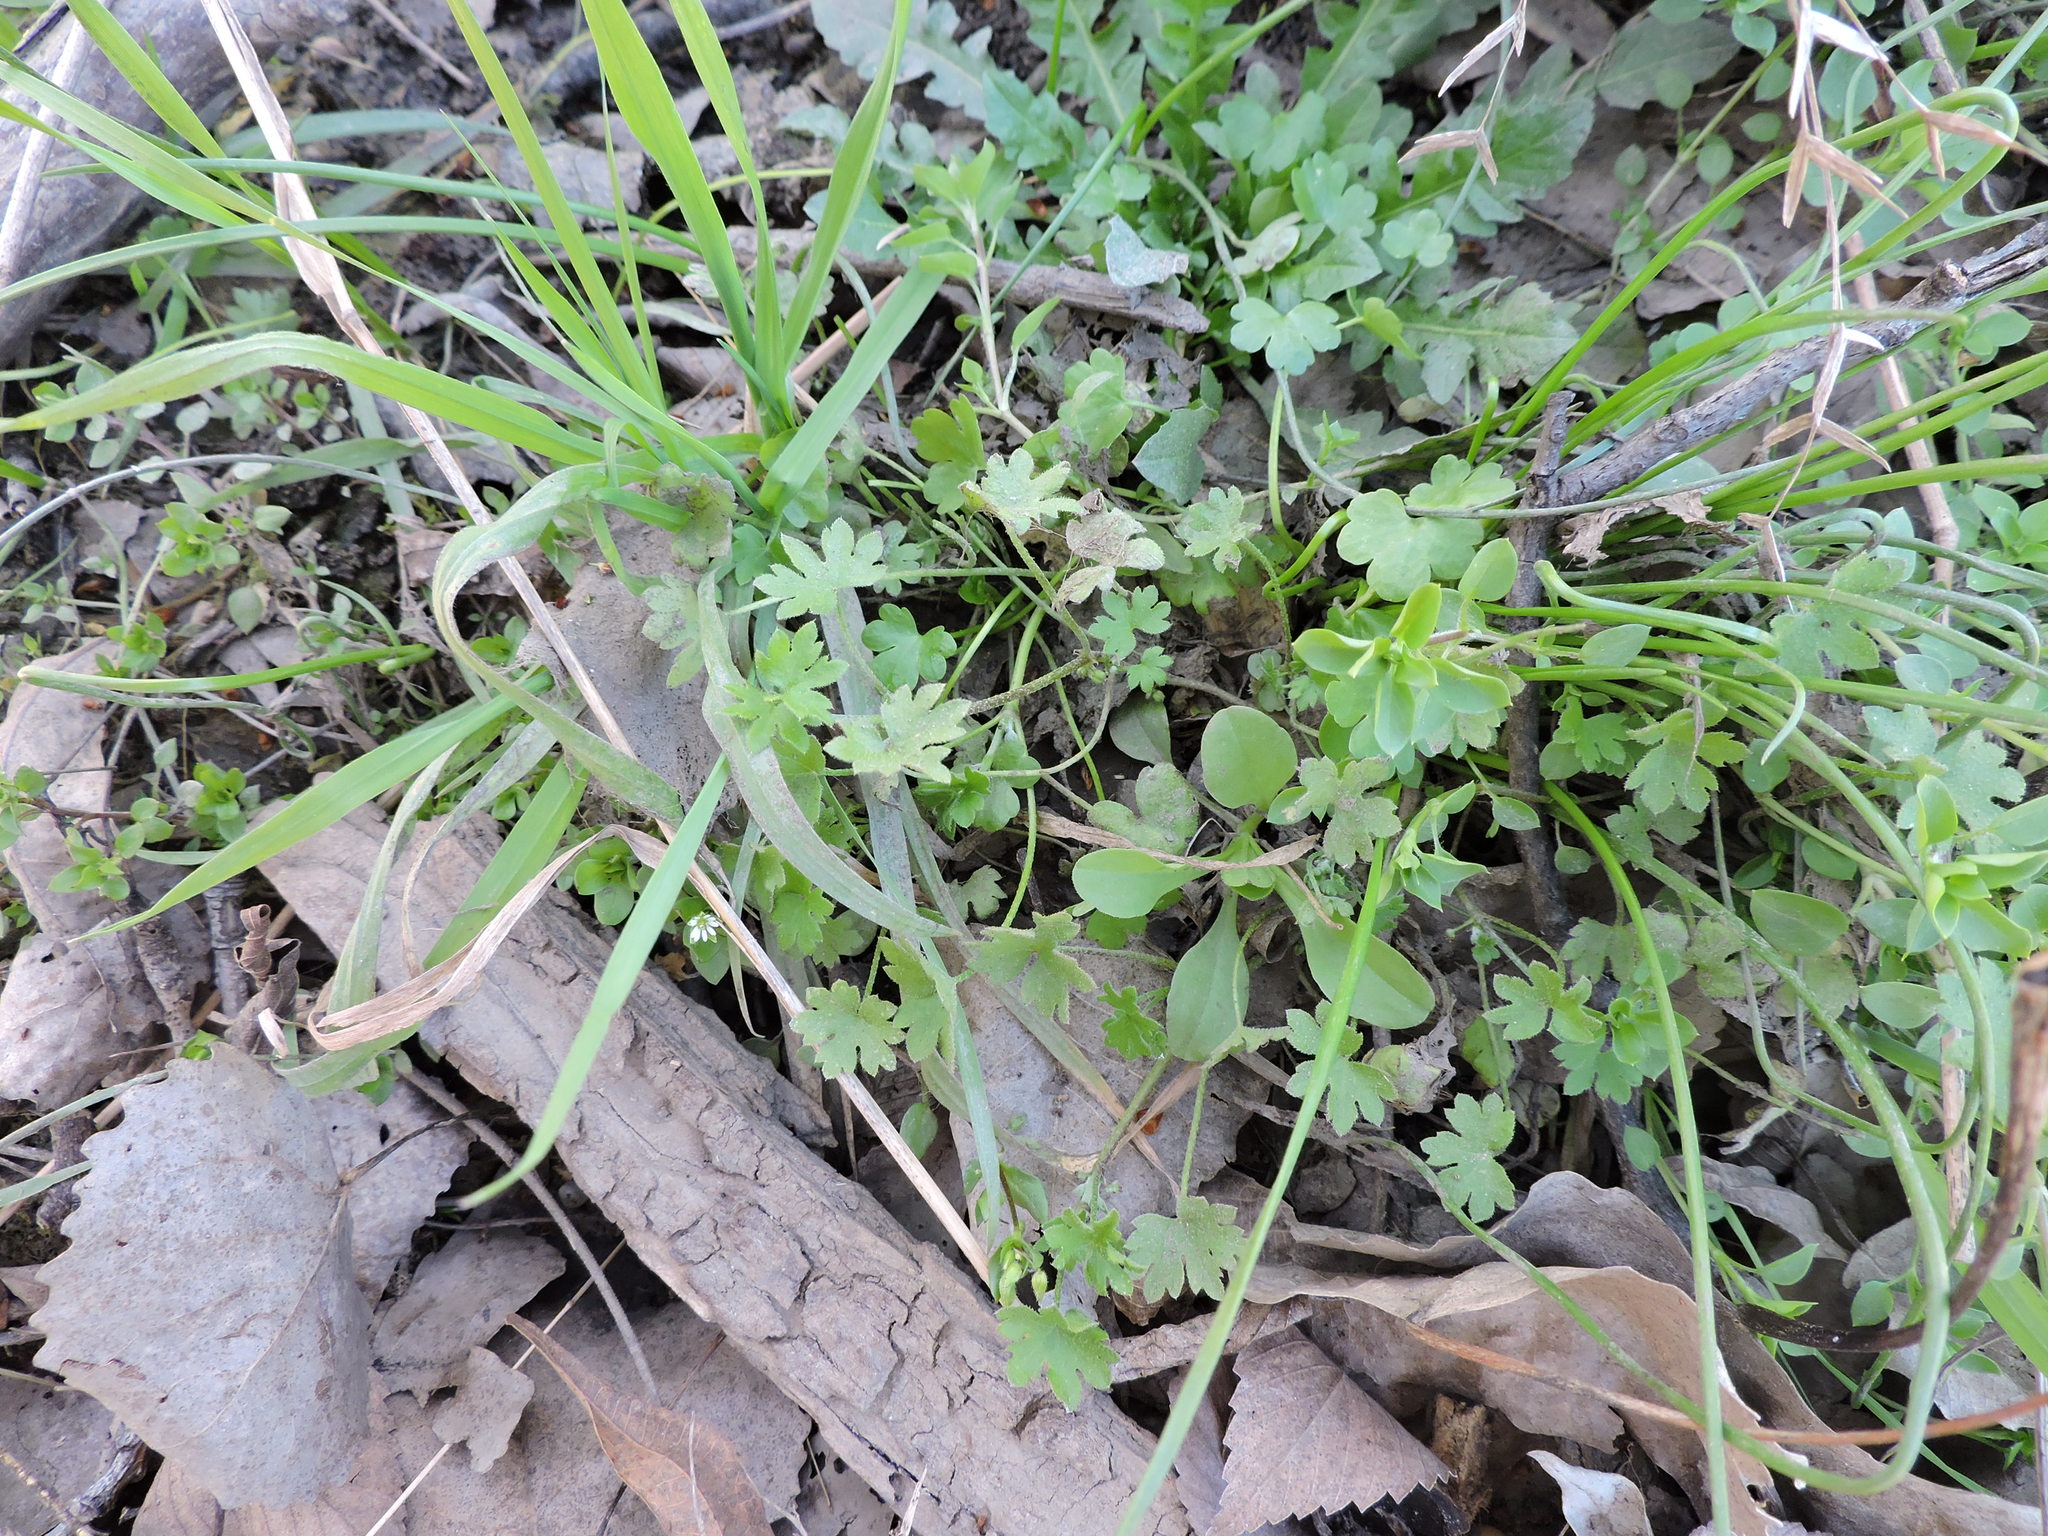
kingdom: Plantae
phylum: Tracheophyta
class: Magnoliopsida
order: Apiales
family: Apiaceae
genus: Bowlesia
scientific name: Bowlesia incana
